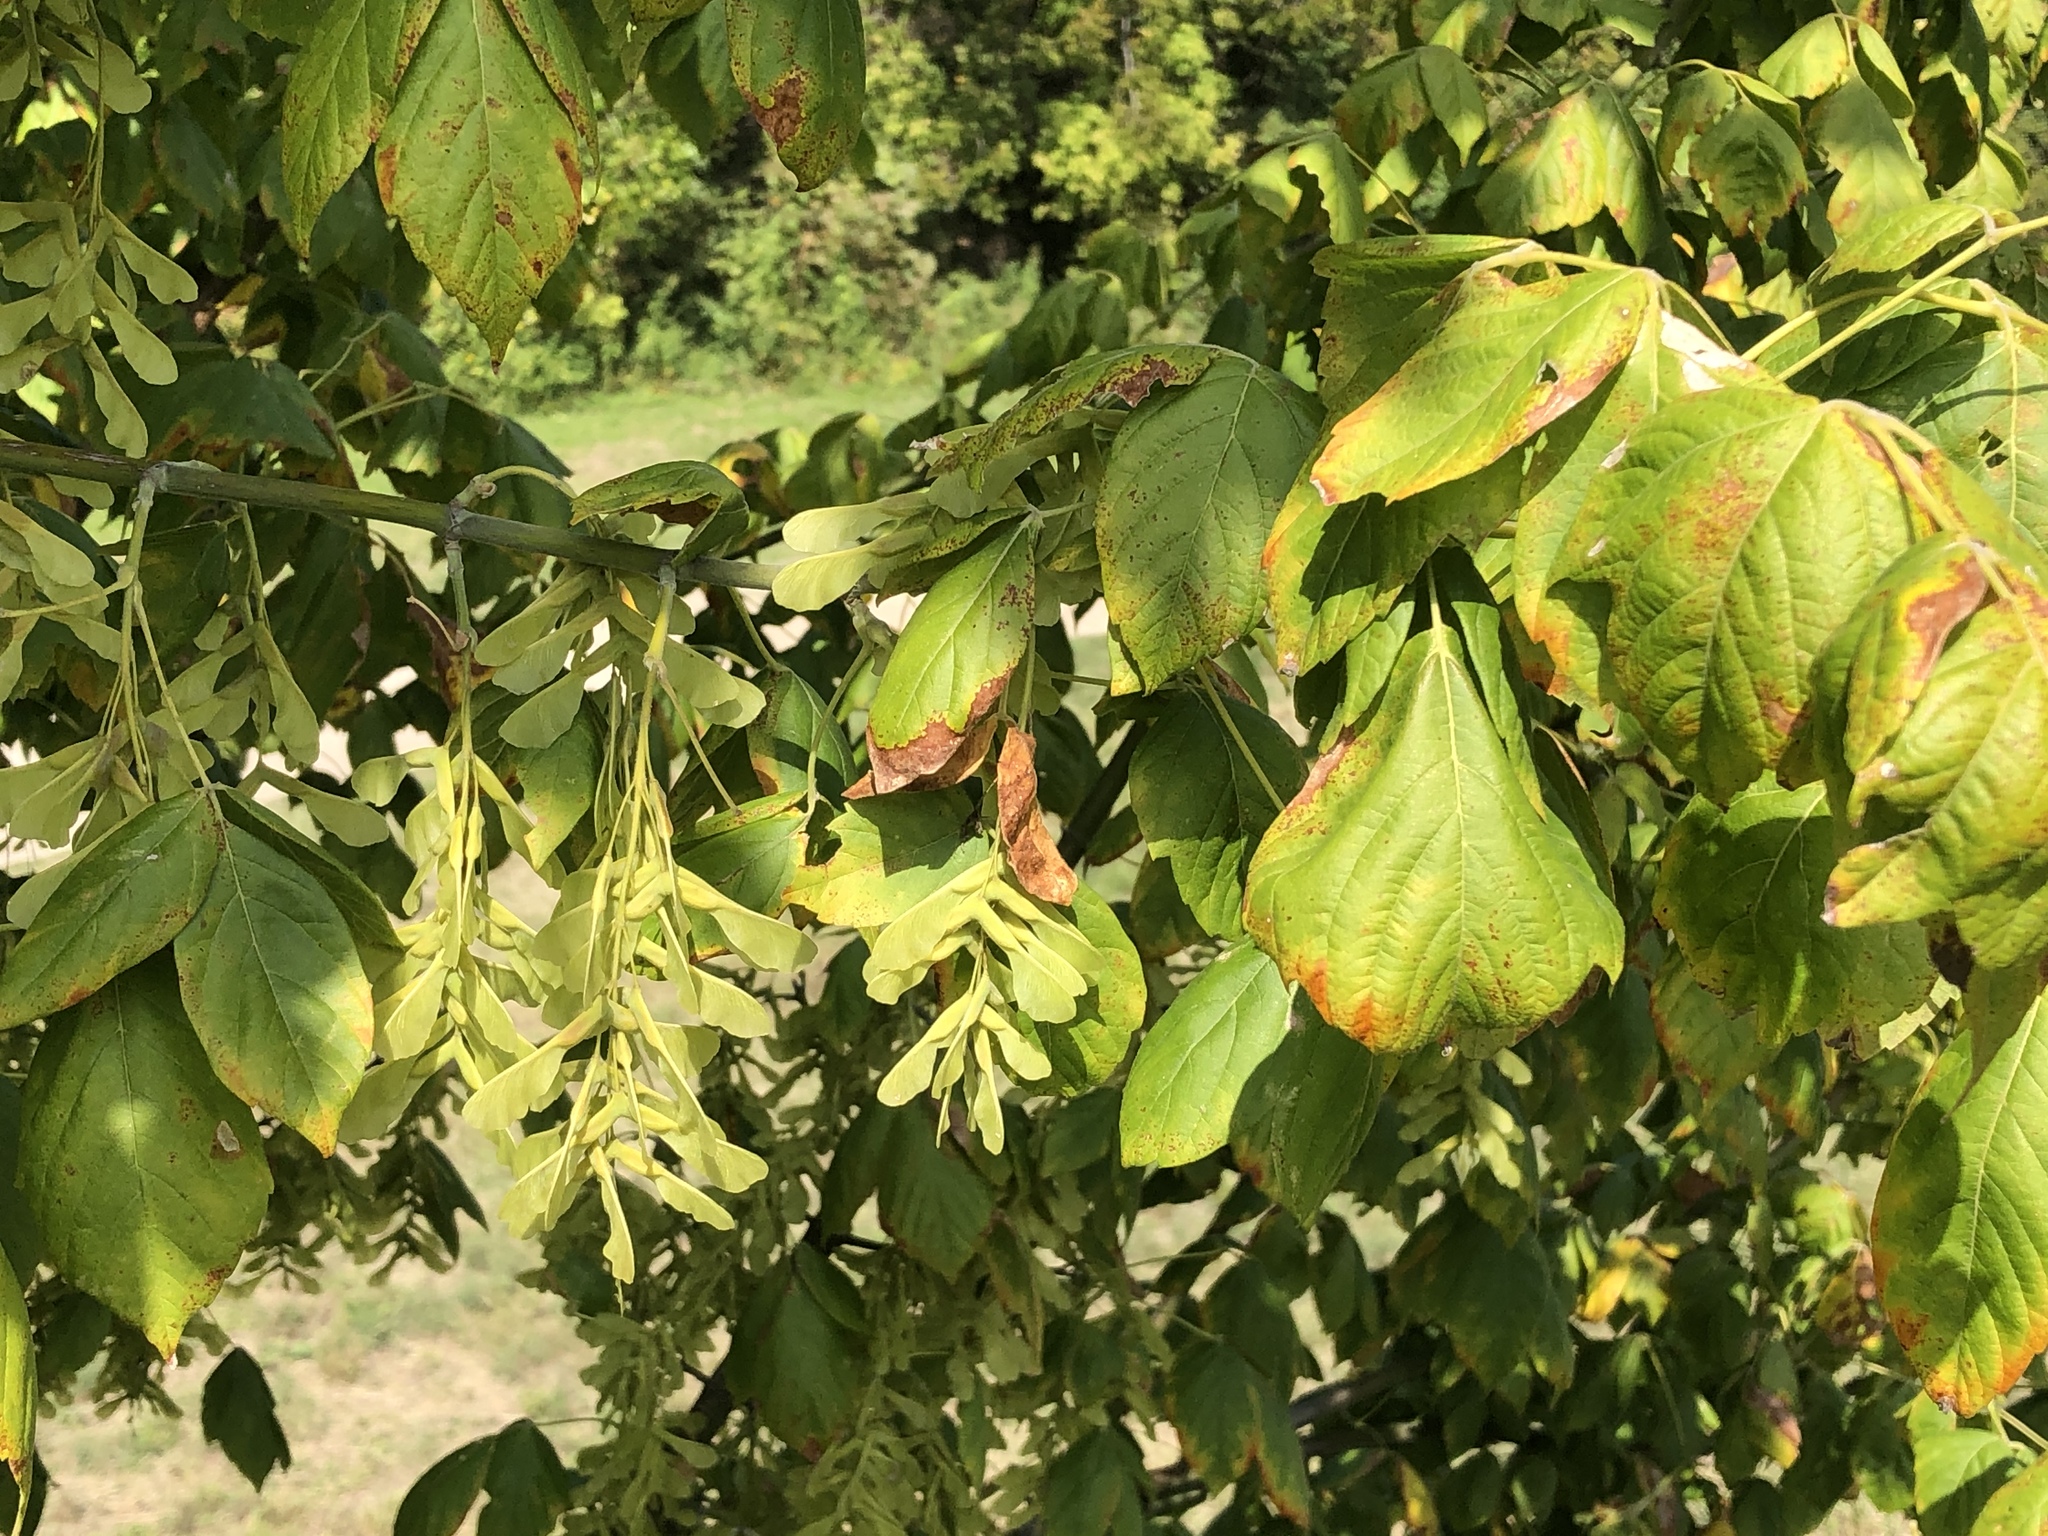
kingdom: Plantae
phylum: Tracheophyta
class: Magnoliopsida
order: Sapindales
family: Sapindaceae
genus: Acer
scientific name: Acer negundo
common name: Ashleaf maple
